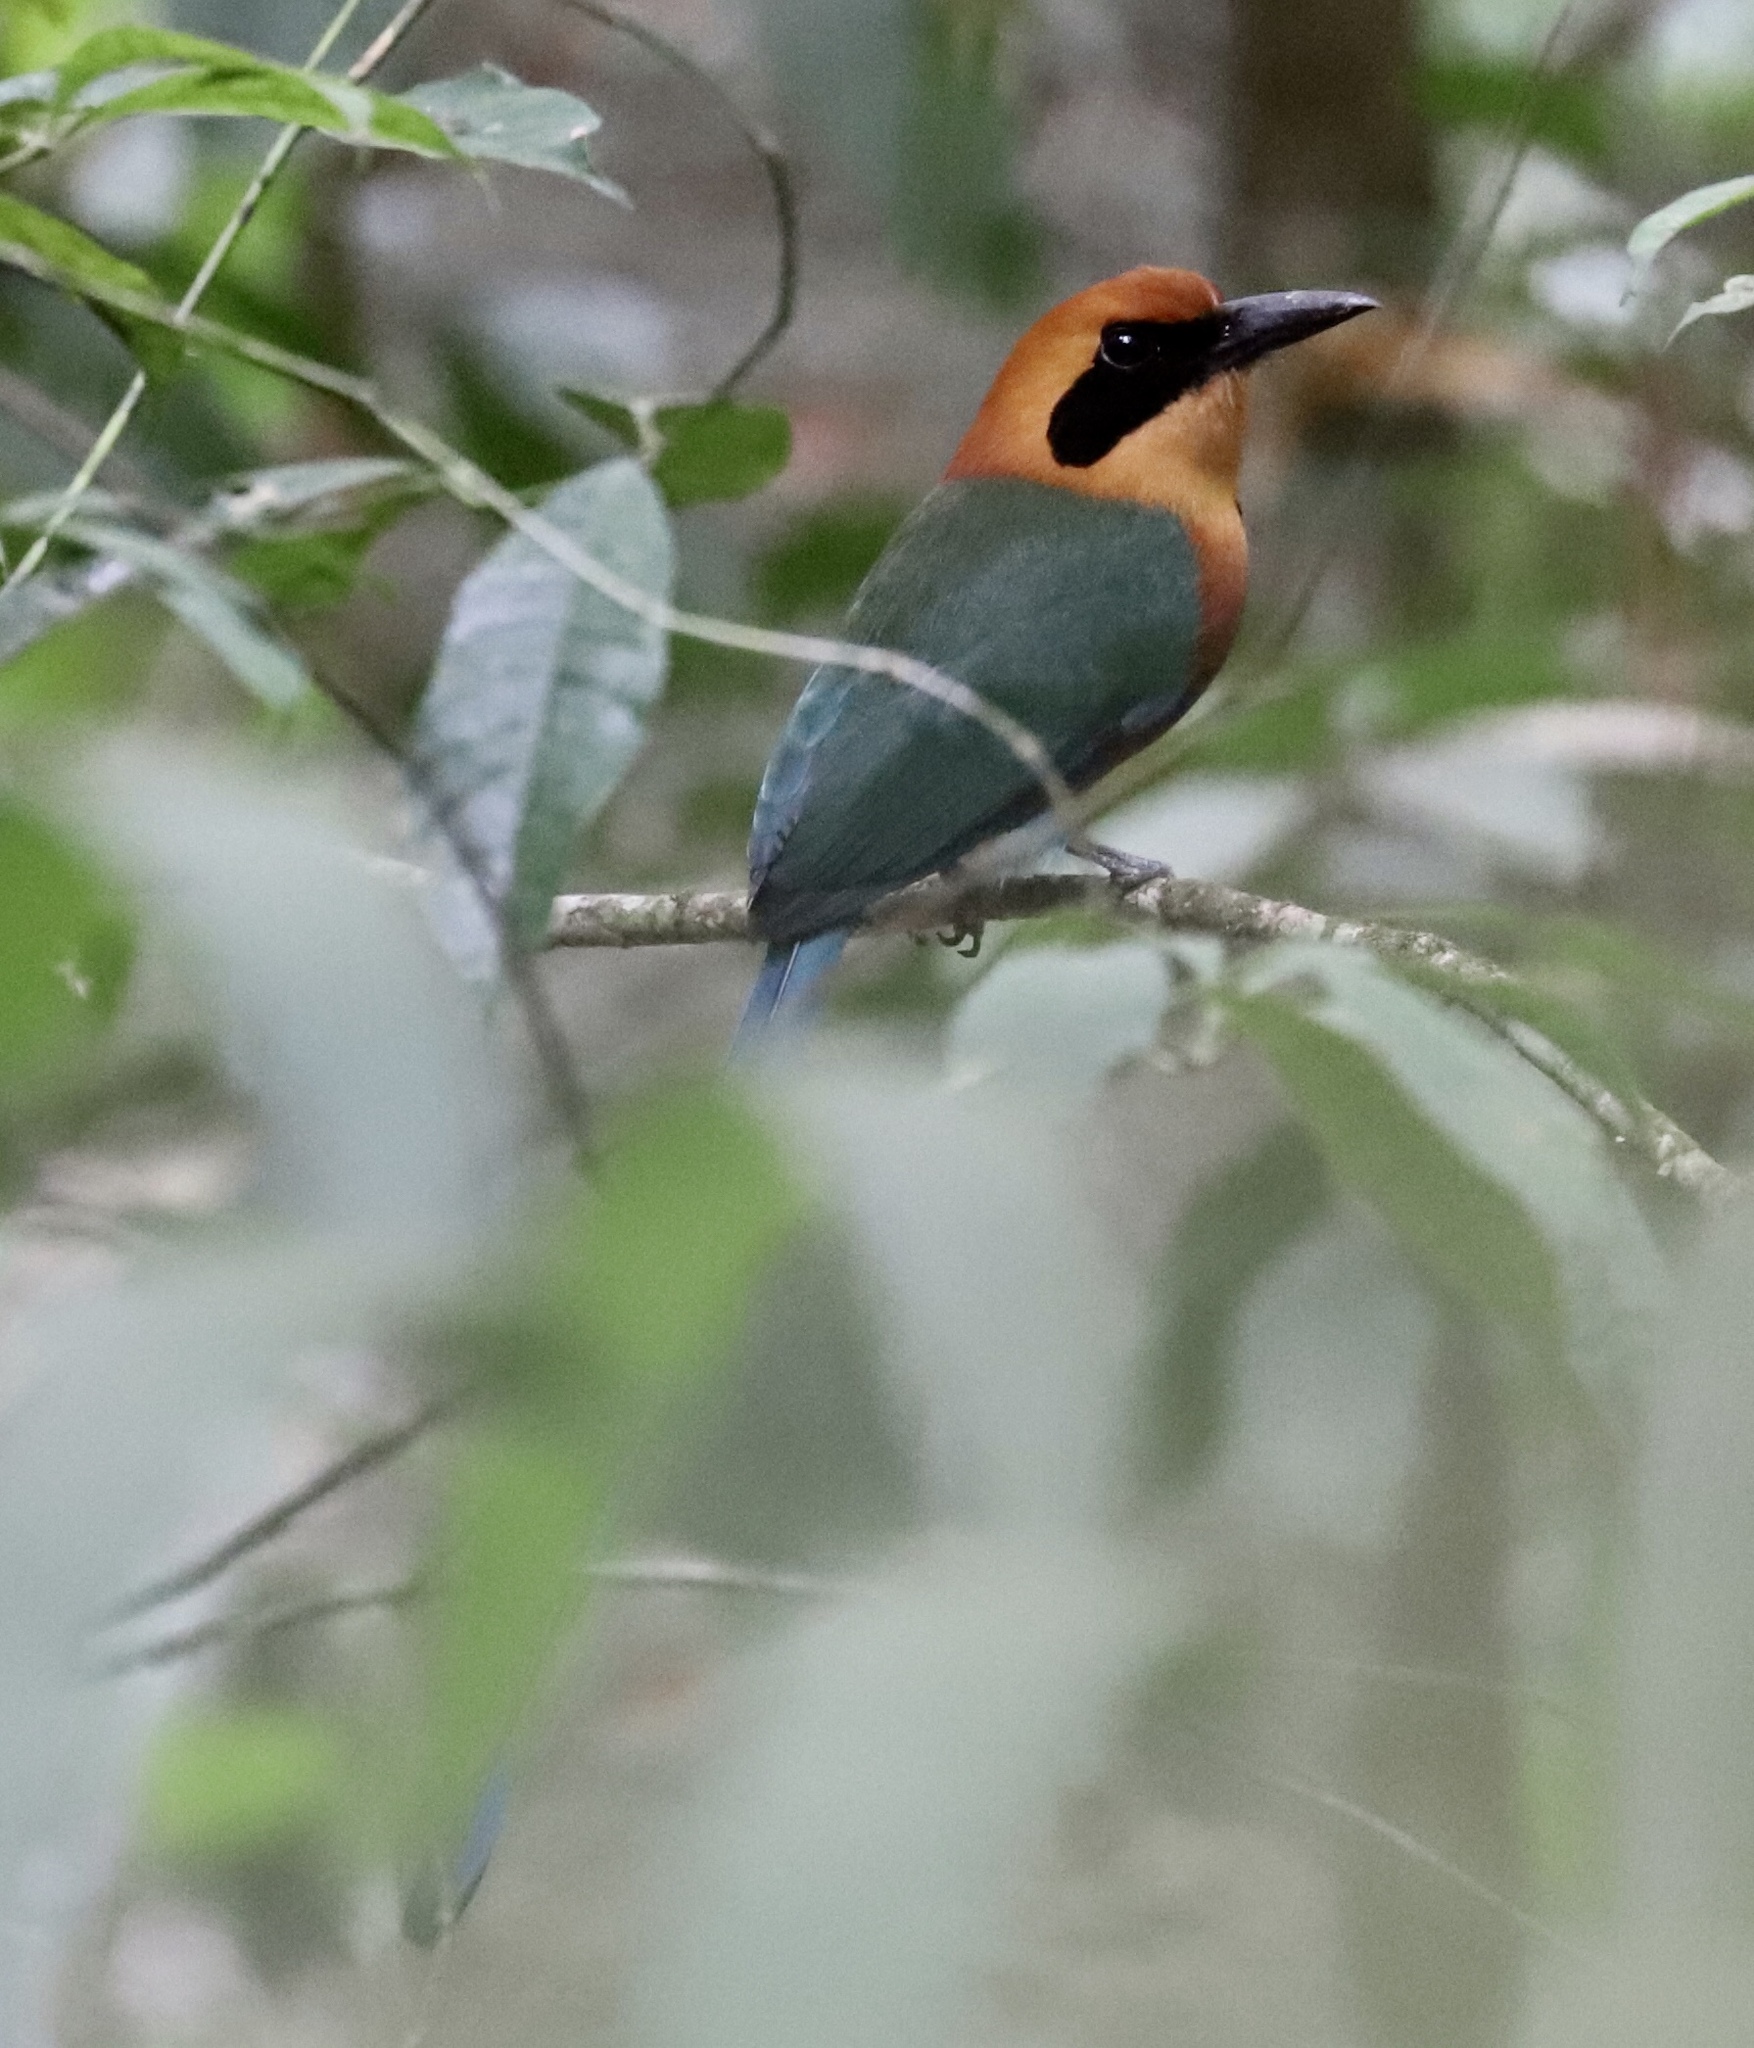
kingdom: Animalia
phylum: Chordata
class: Aves
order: Coraciiformes
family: Momotidae
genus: Baryphthengus
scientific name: Baryphthengus martii
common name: Rufous motmot
